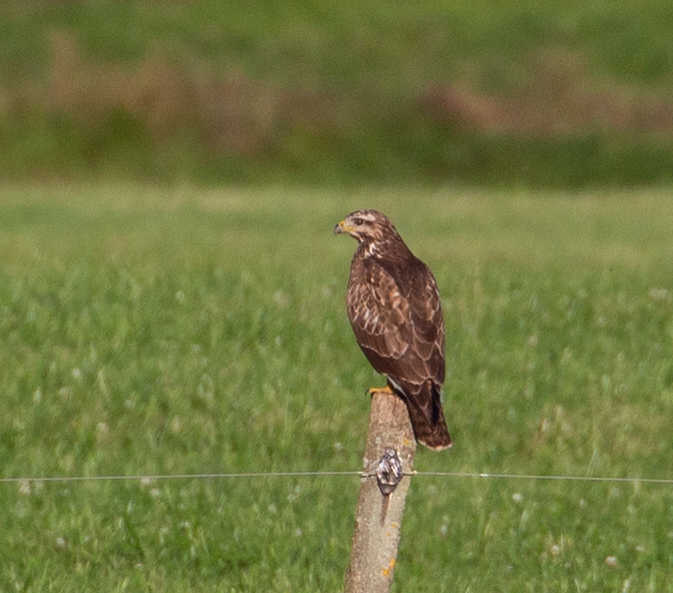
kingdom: Animalia
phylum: Chordata
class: Aves
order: Accipitriformes
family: Accipitridae
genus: Buteo
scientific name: Buteo buteo
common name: Common buzzard
